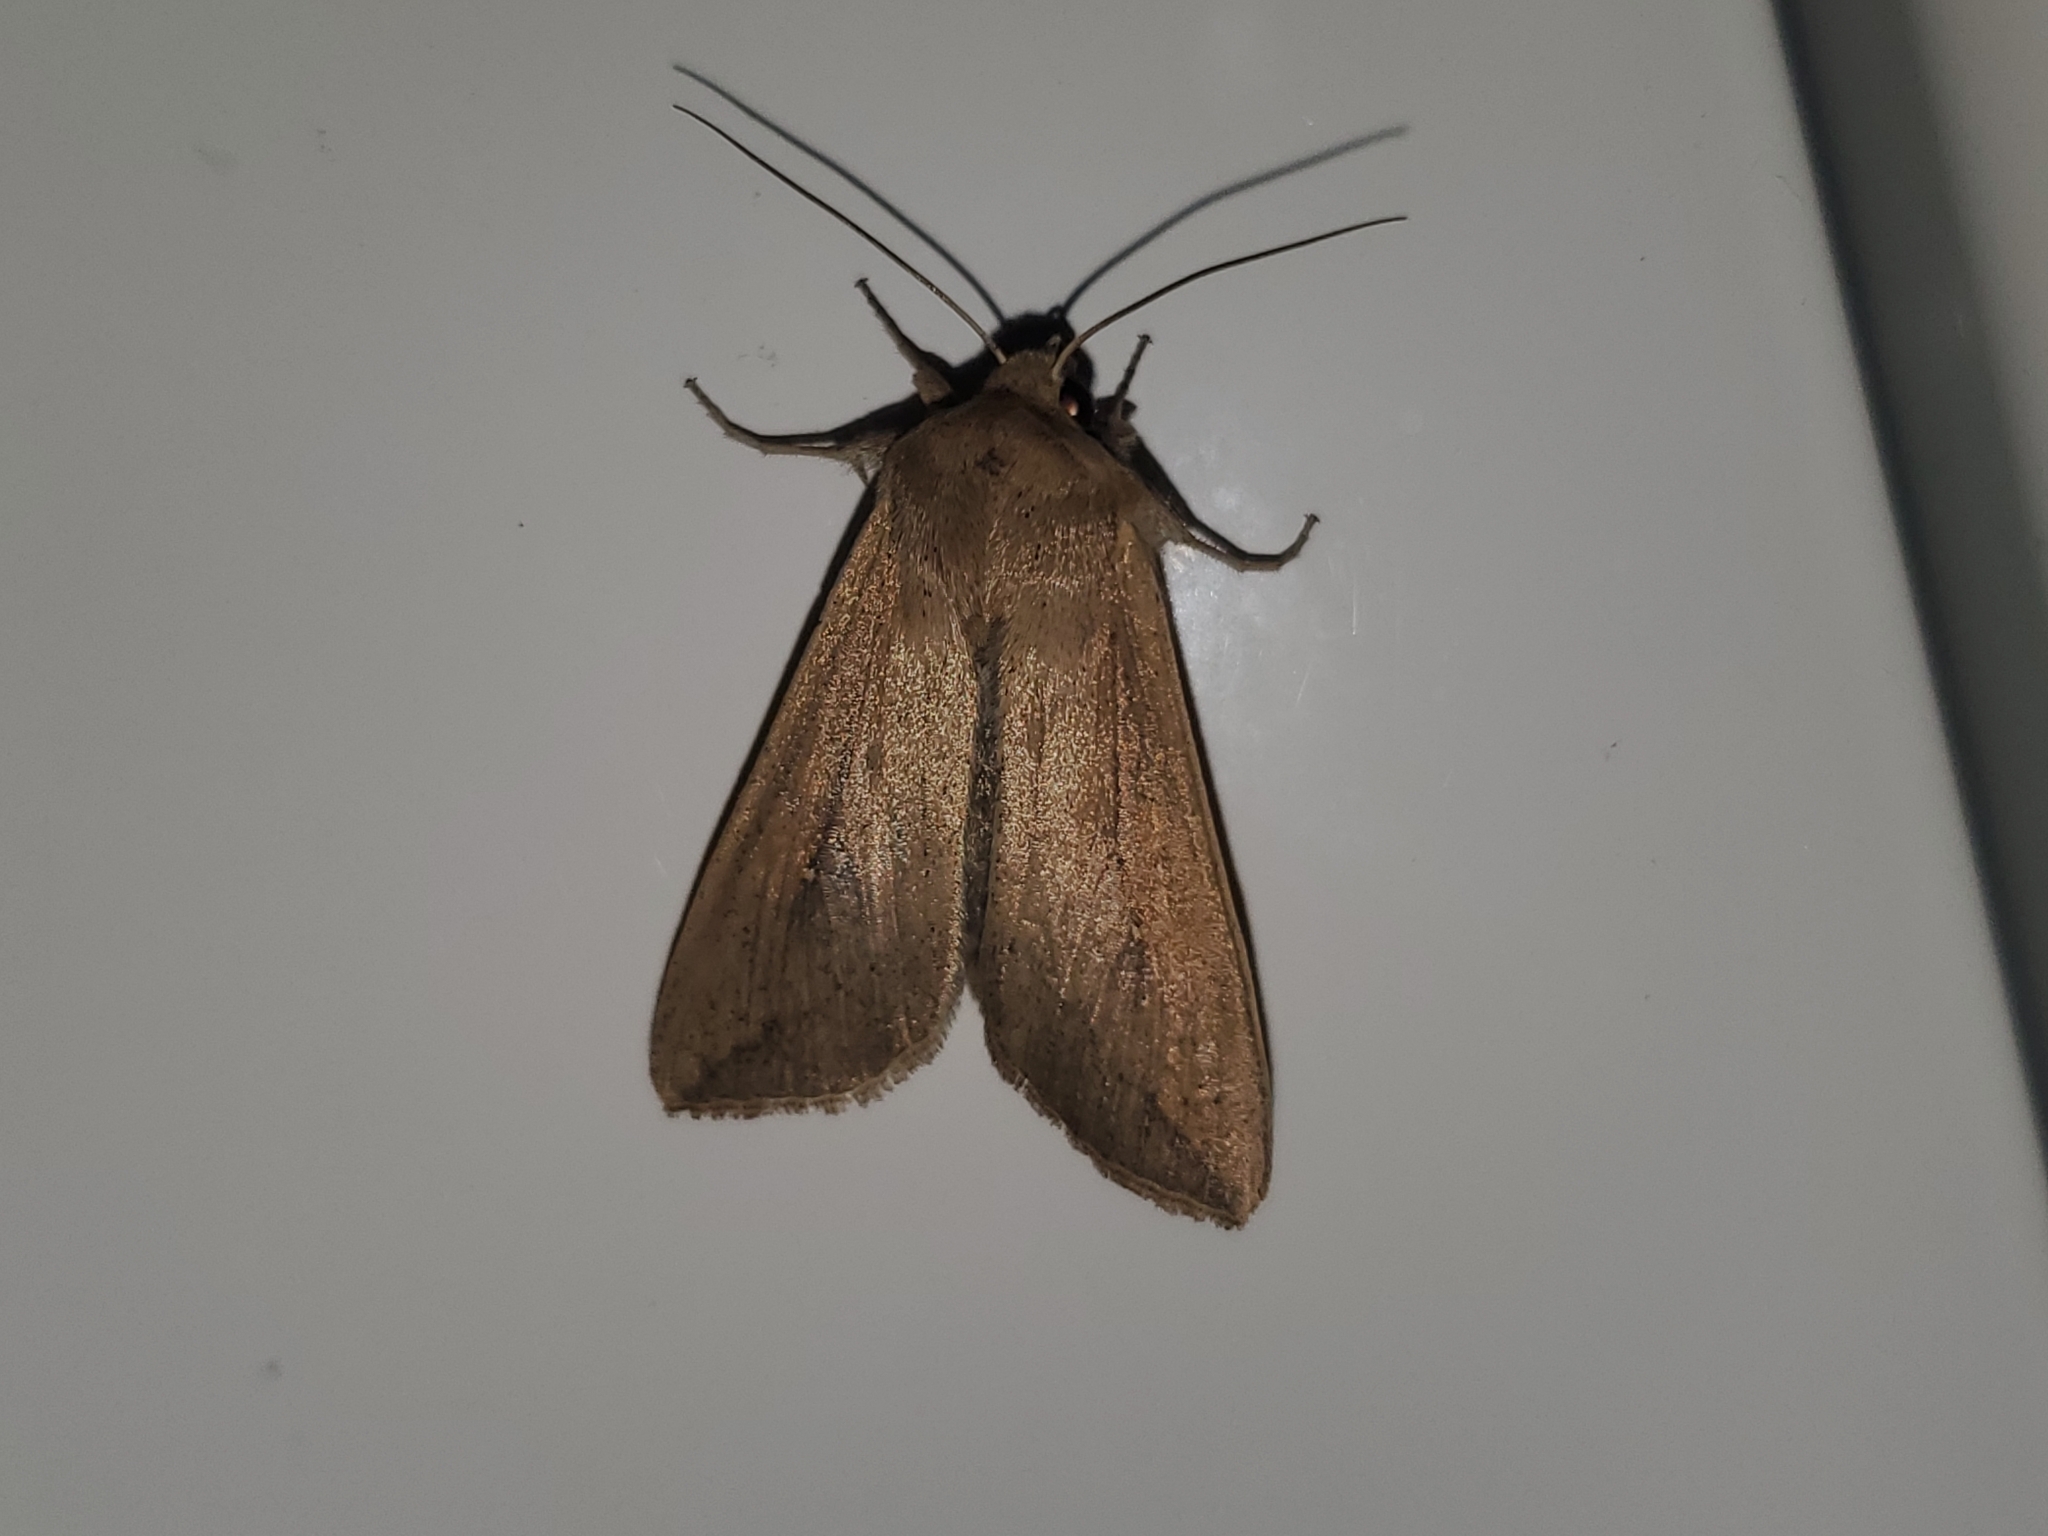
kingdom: Animalia
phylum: Arthropoda
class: Insecta
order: Lepidoptera
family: Noctuidae
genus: Mythimna
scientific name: Mythimna unipuncta
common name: White-speck
